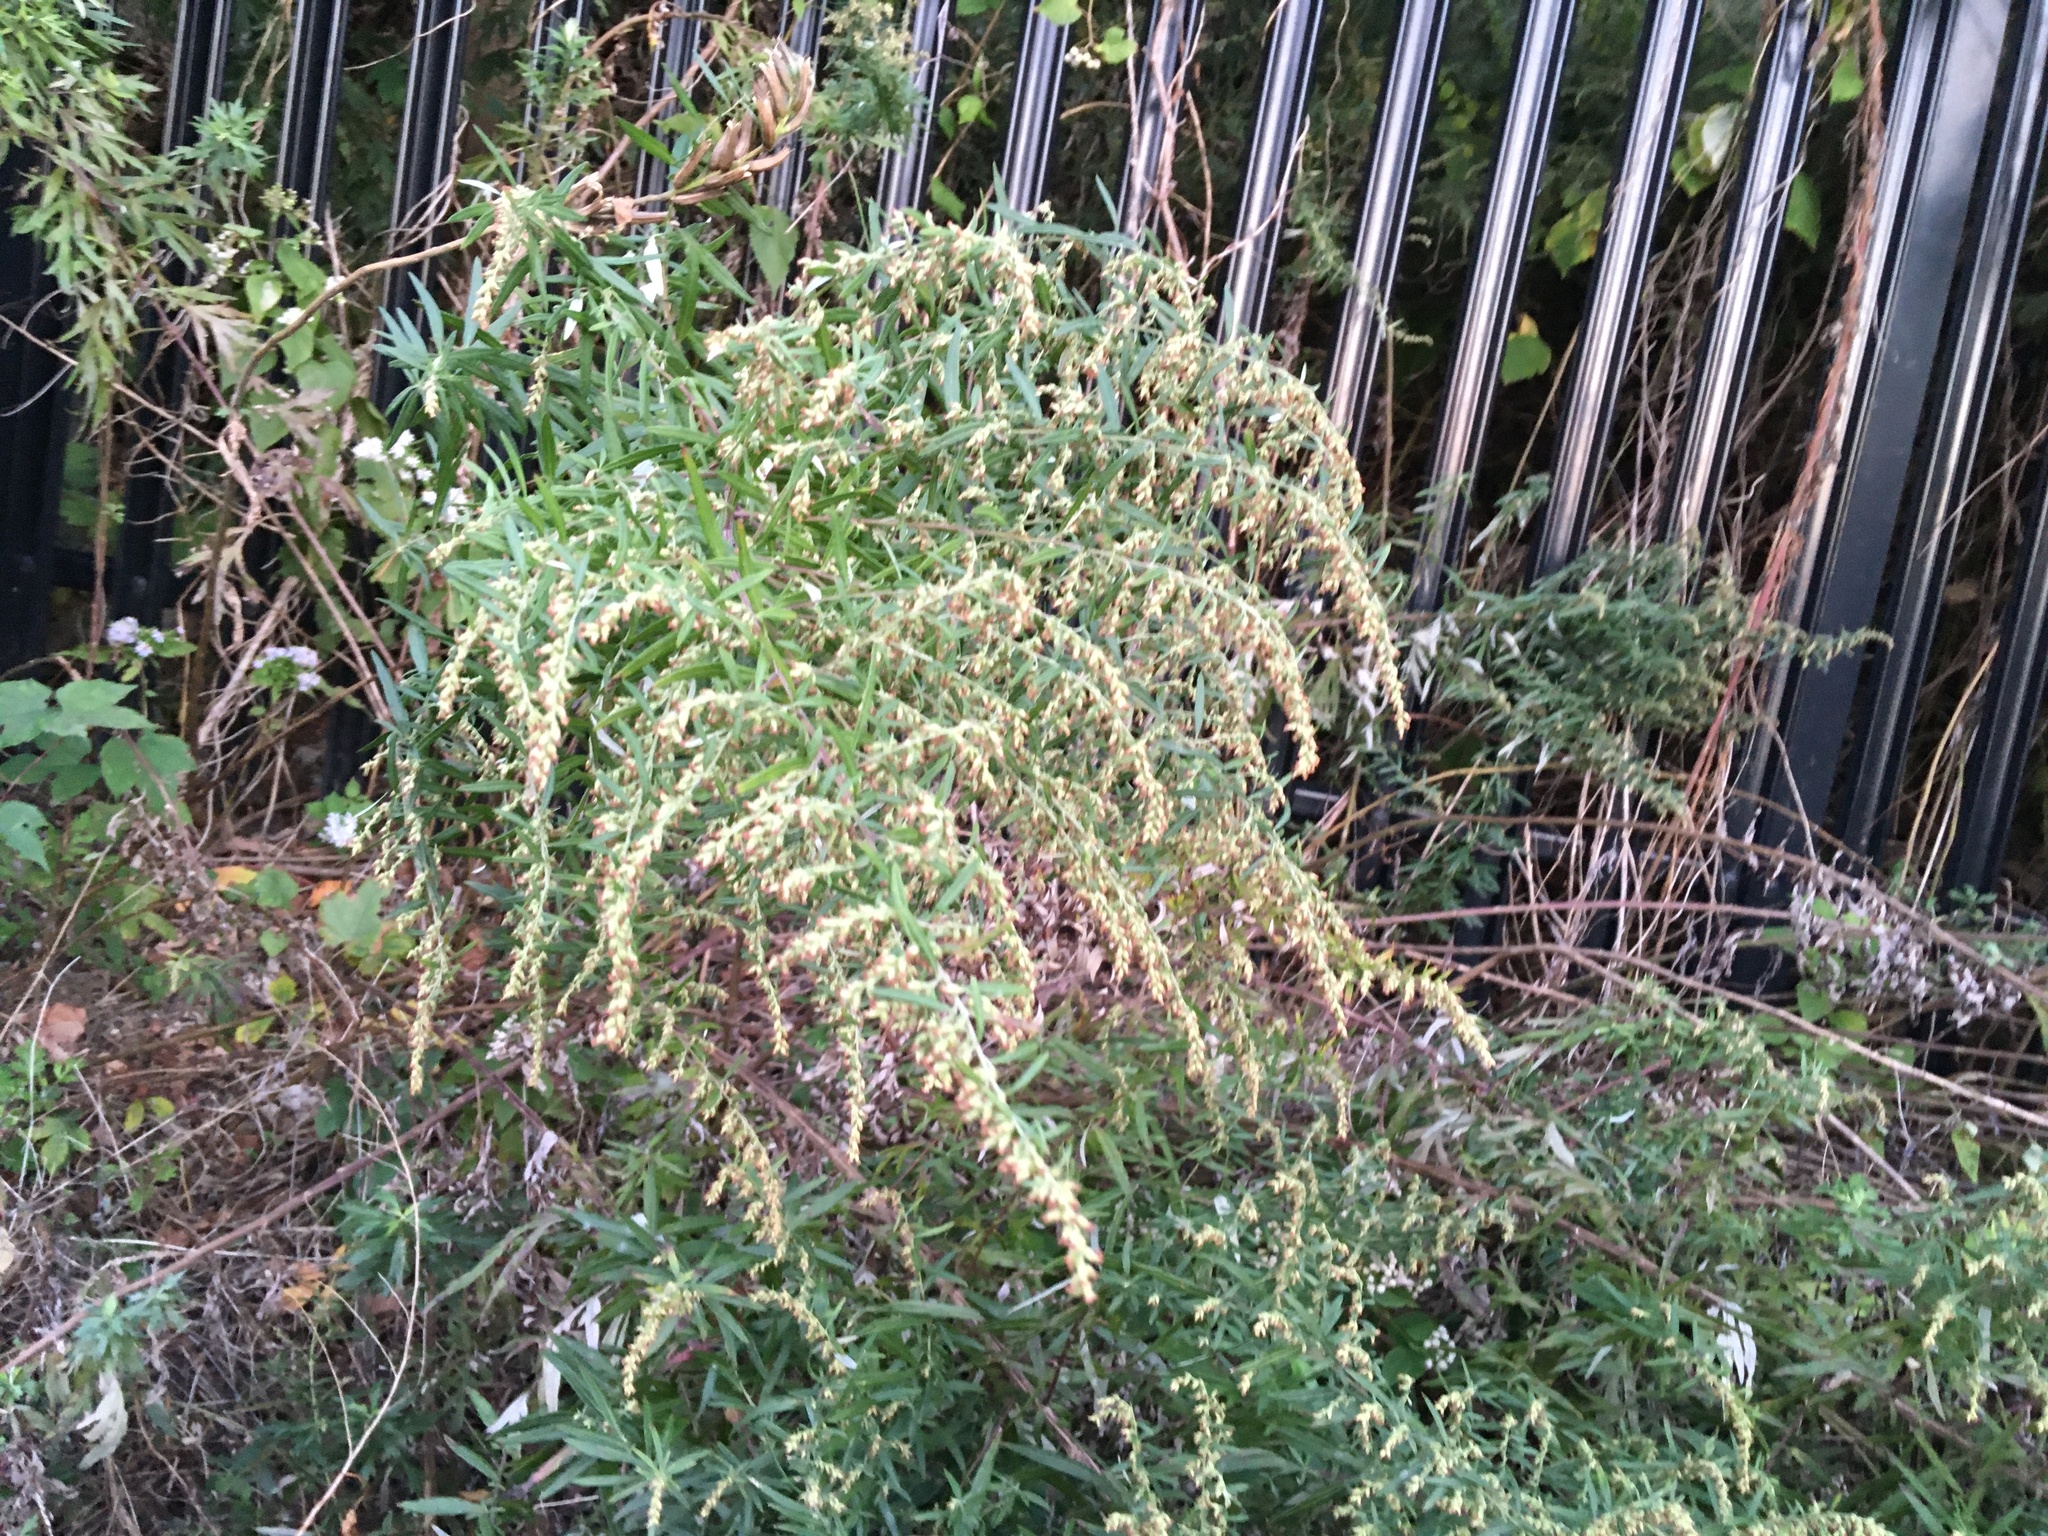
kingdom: Plantae
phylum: Tracheophyta
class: Magnoliopsida
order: Asterales
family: Asteraceae
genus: Artemisia
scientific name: Artemisia vulgaris
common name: Mugwort
